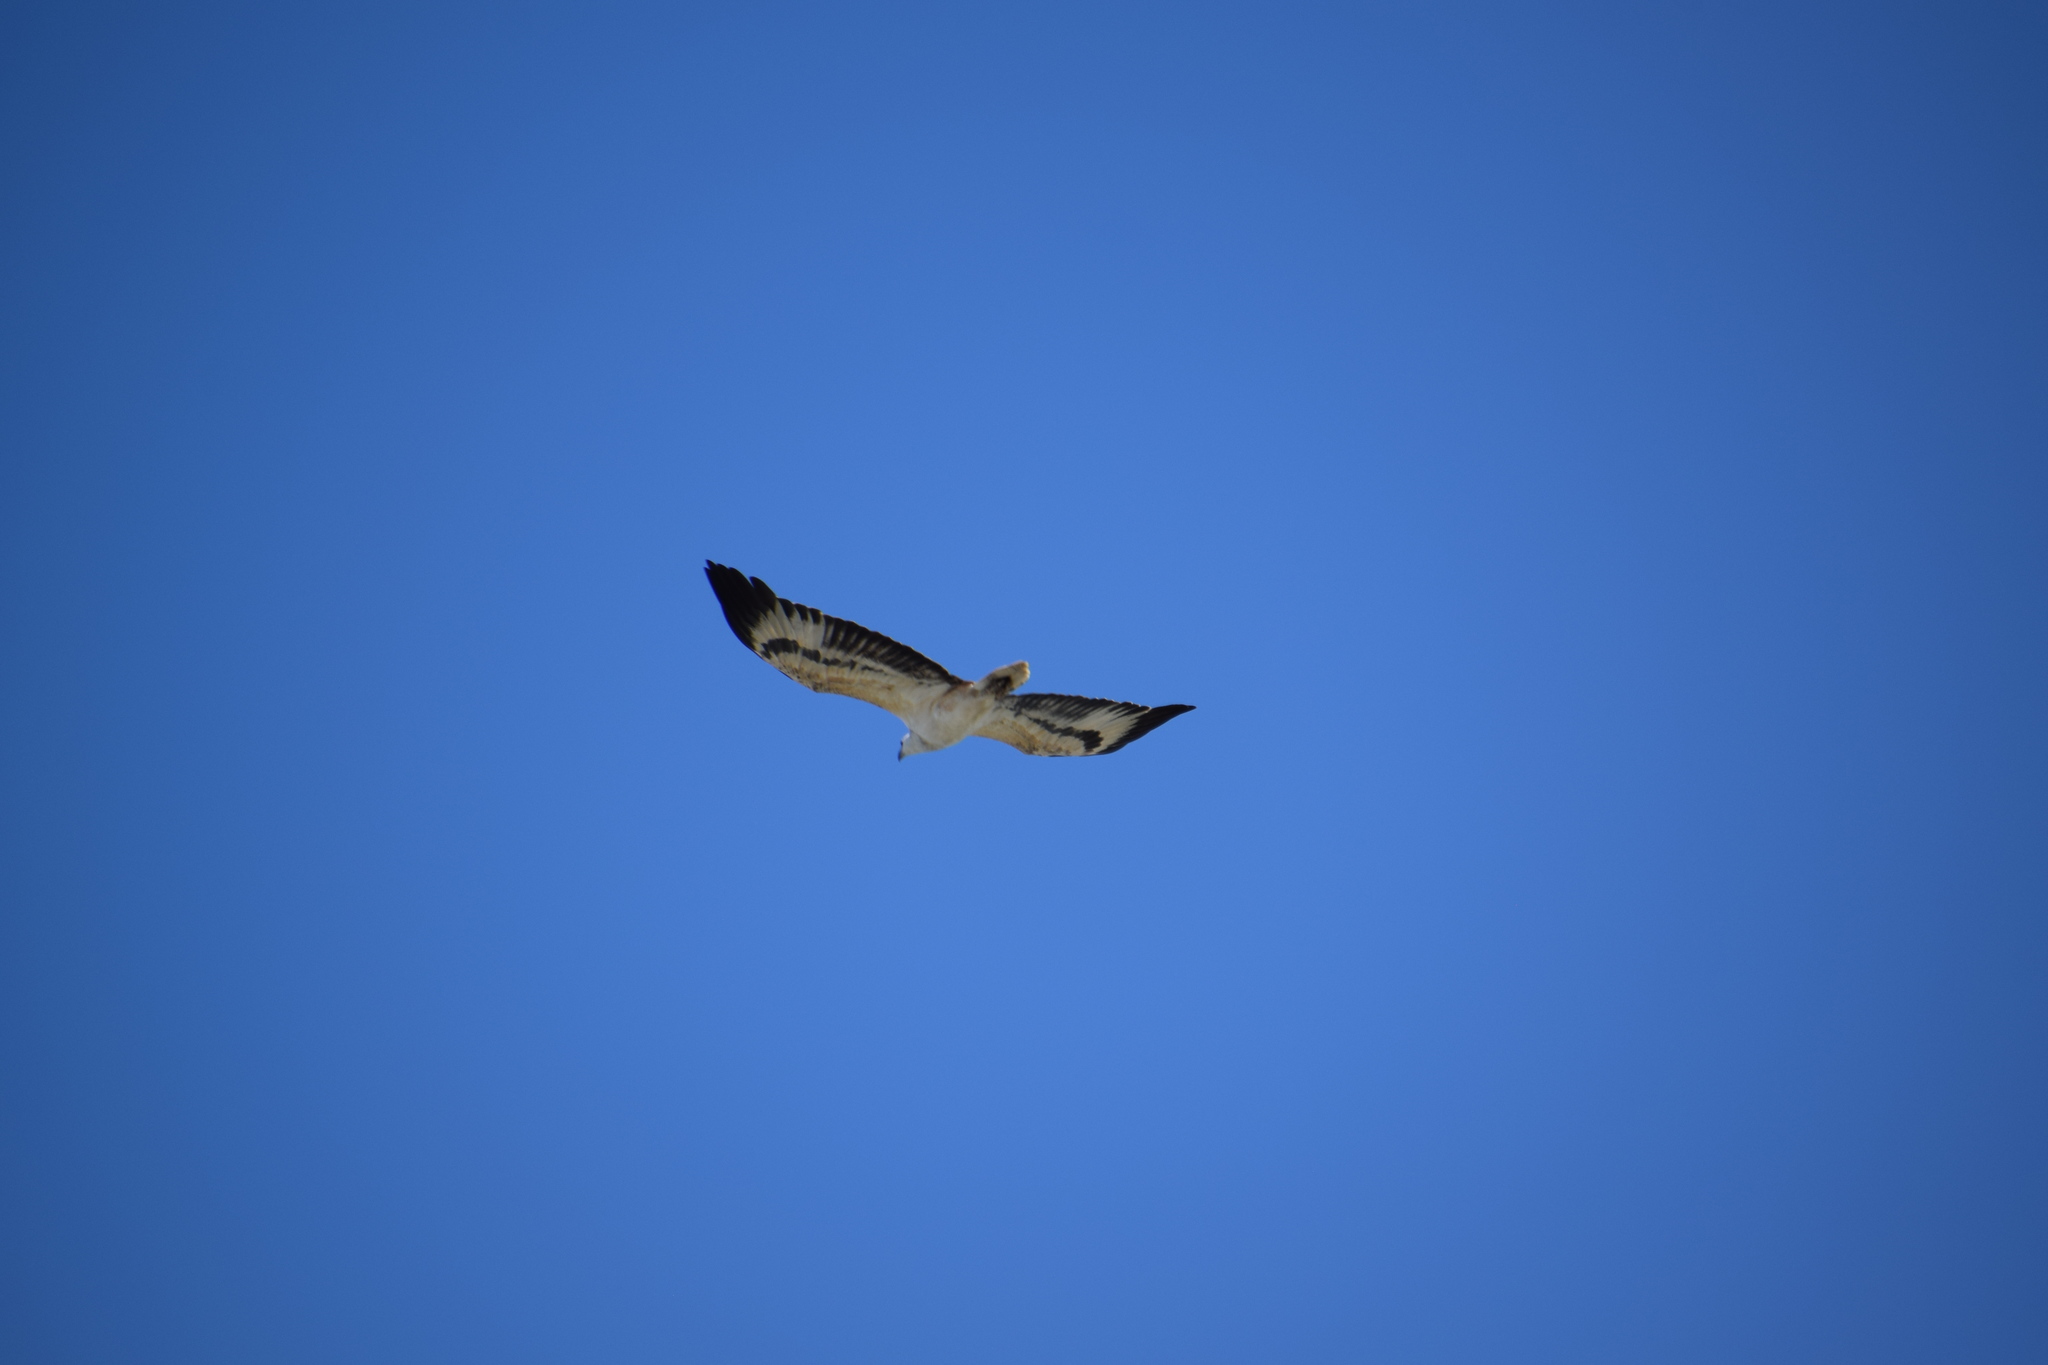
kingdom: Animalia
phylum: Chordata
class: Aves
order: Accipitriformes
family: Accipitridae
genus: Haliaeetus
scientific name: Haliaeetus leucogaster
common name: White-bellied sea eagle
